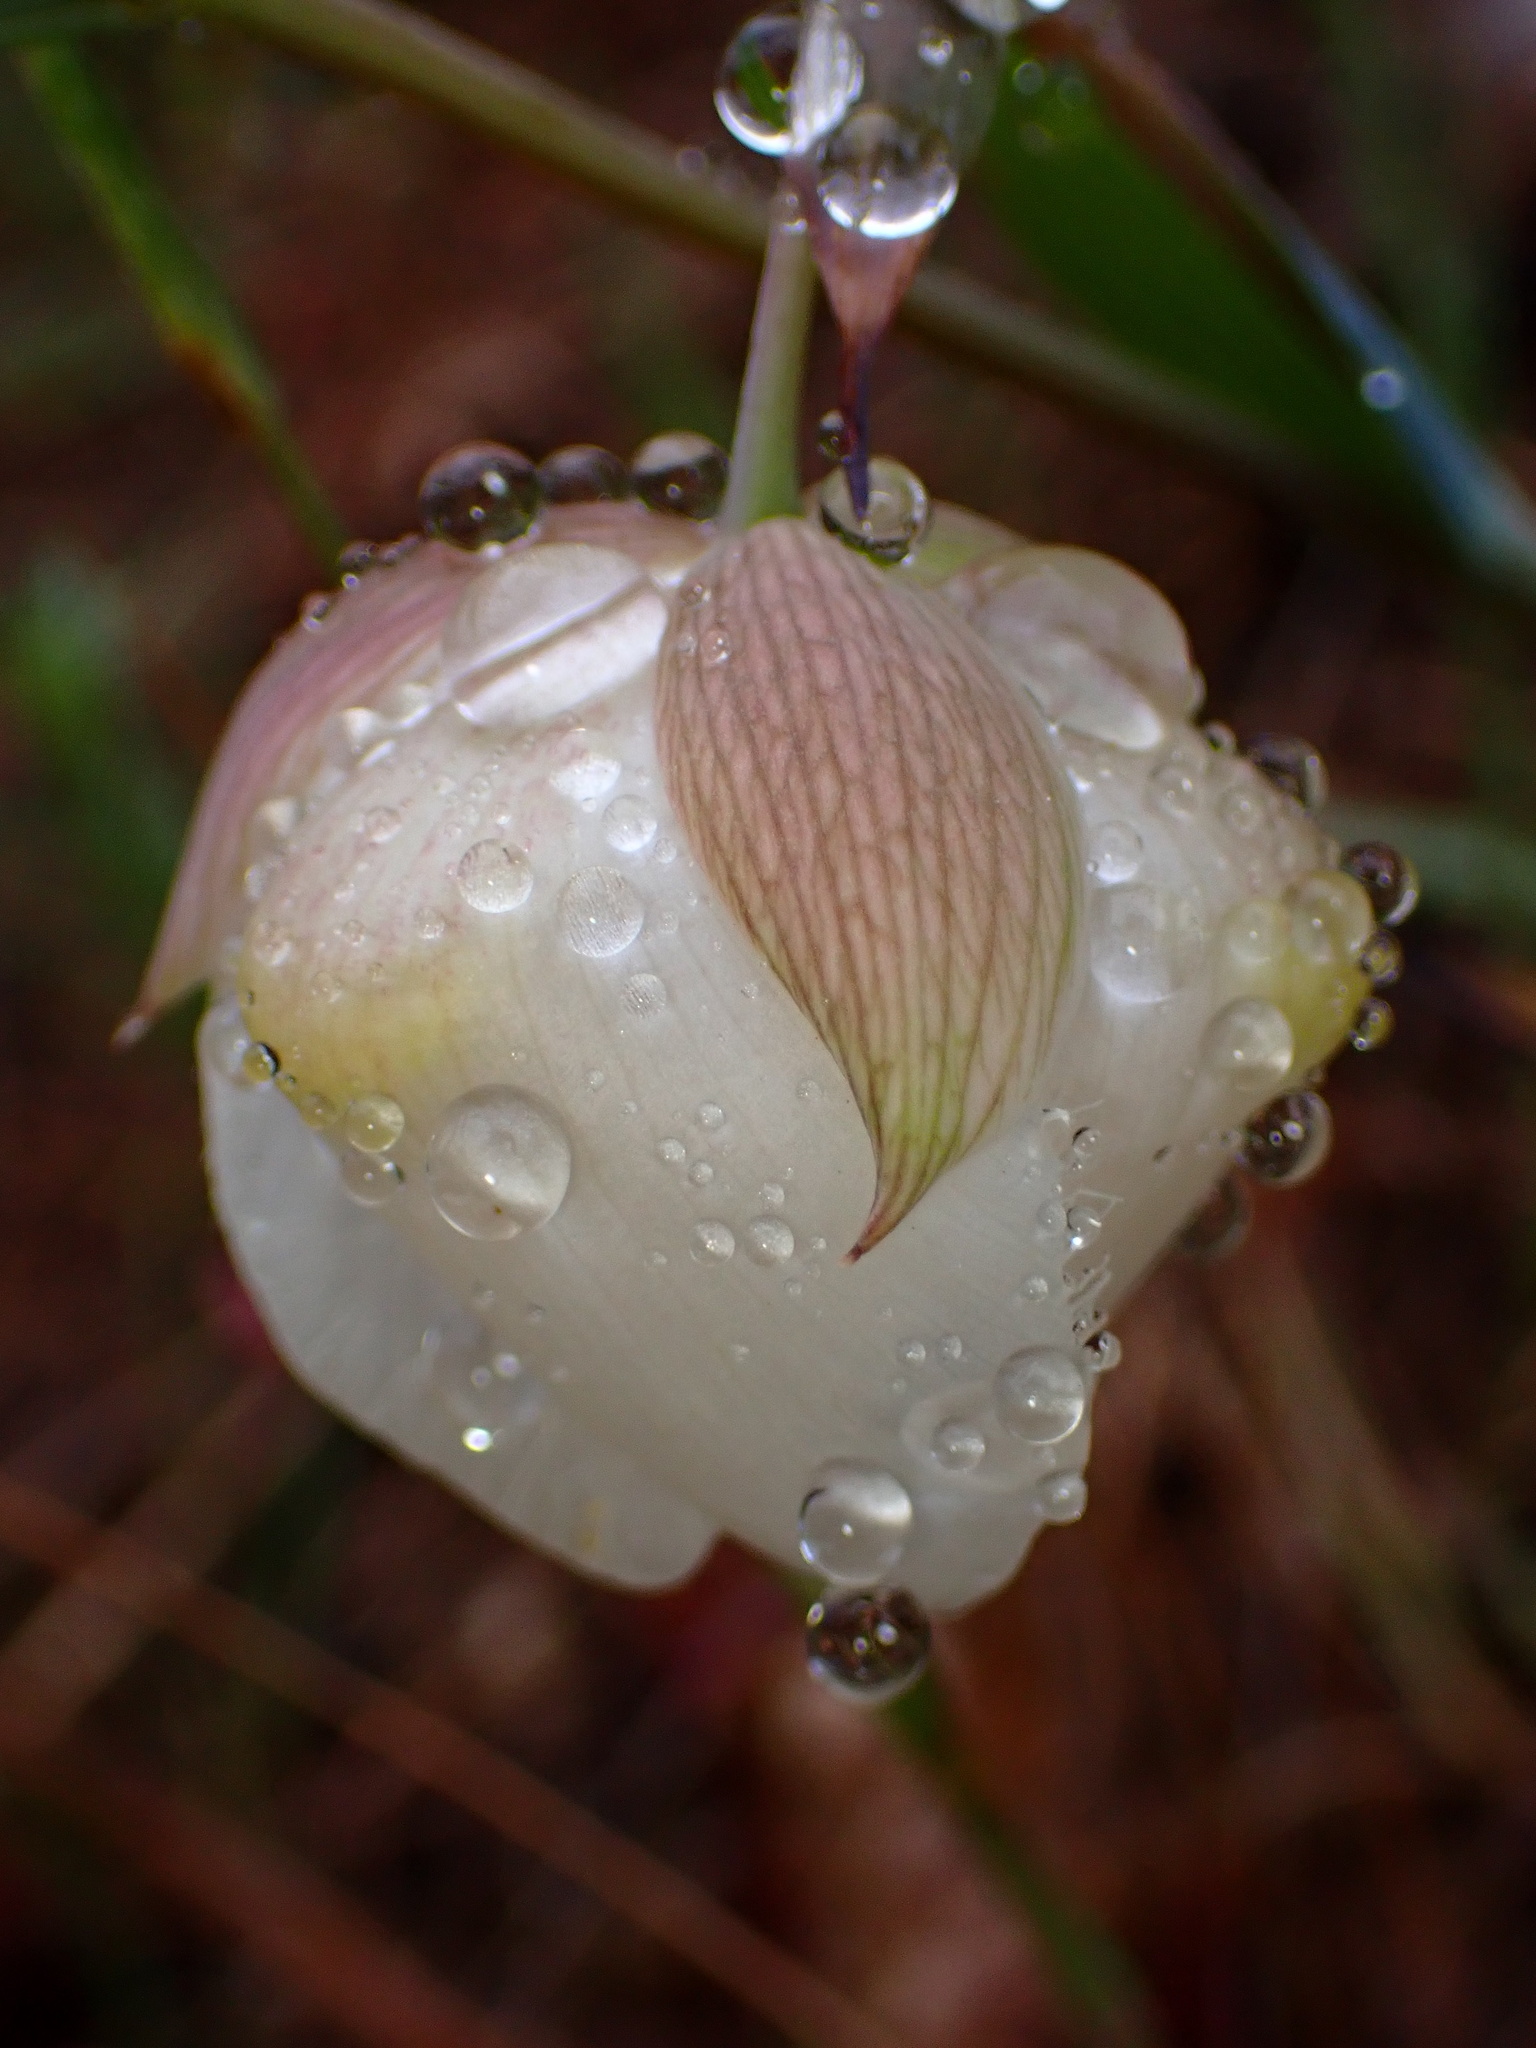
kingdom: Plantae
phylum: Tracheophyta
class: Liliopsida
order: Liliales
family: Liliaceae
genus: Calochortus
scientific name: Calochortus albus
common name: Fairy-lantern
